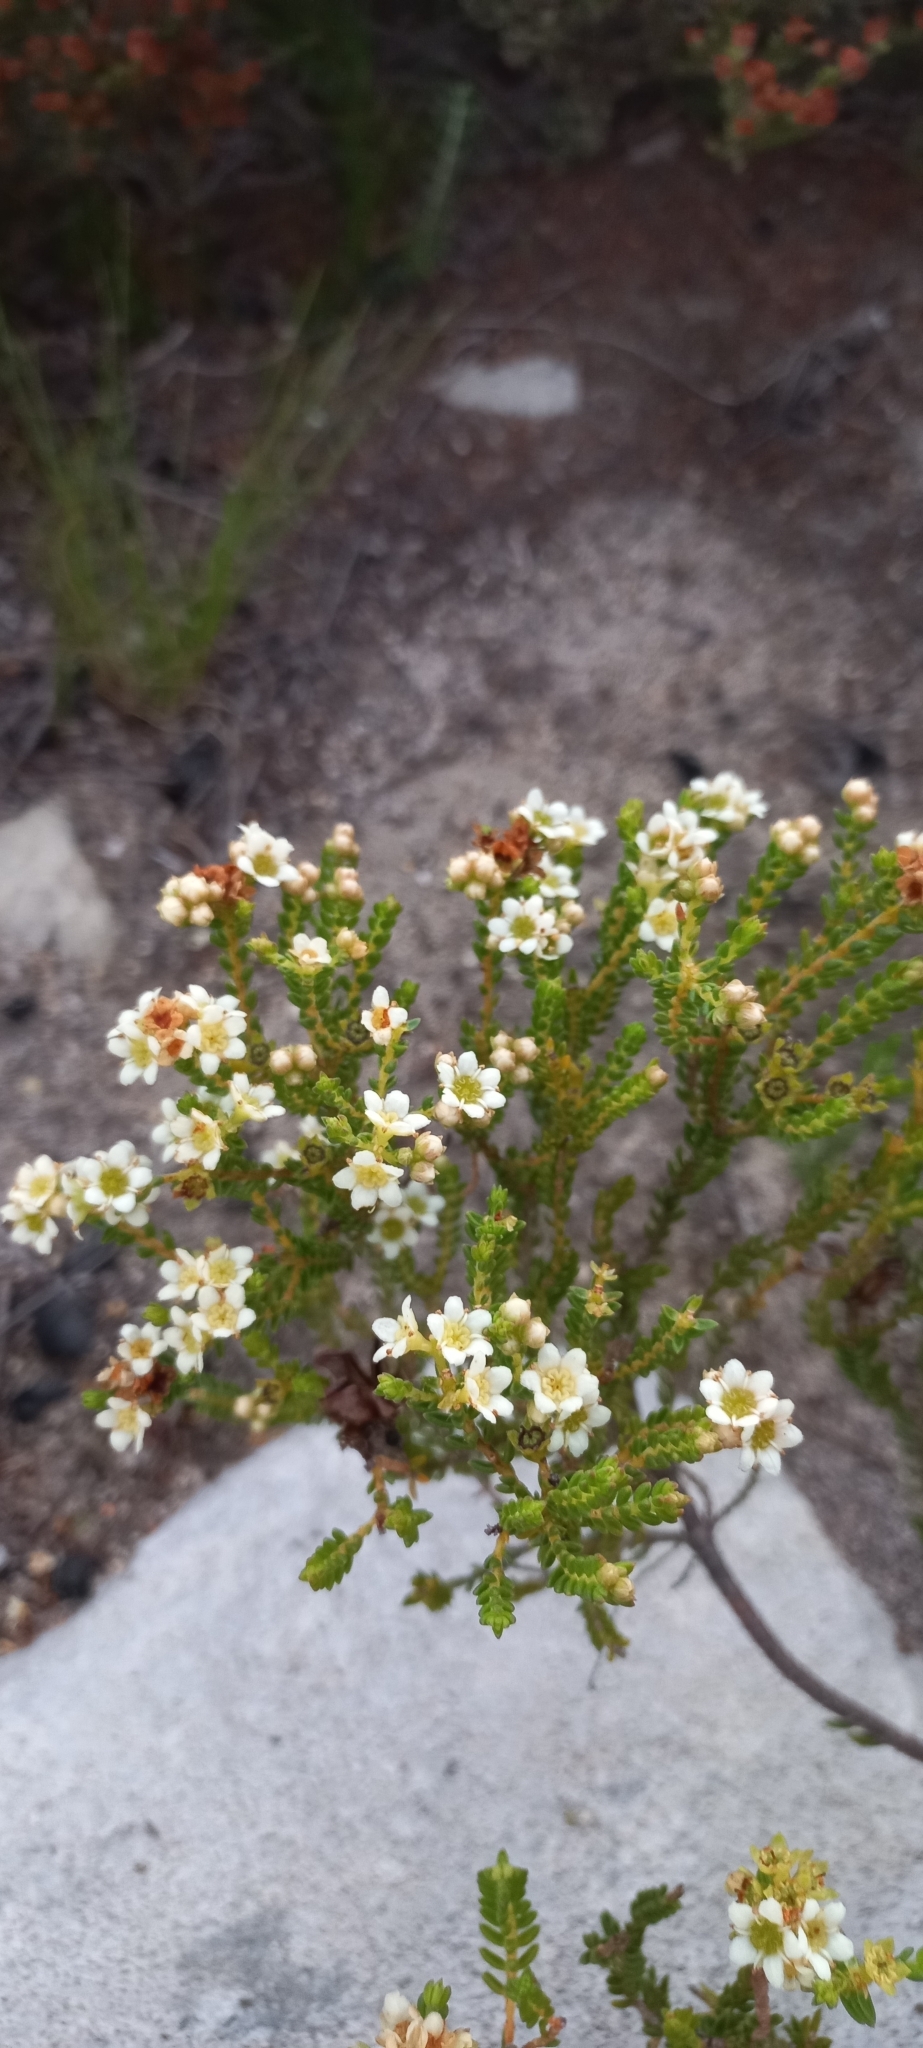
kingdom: Plantae
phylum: Tracheophyta
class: Magnoliopsida
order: Sapindales
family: Rutaceae
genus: Diosma
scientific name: Diosma oppositifolia
